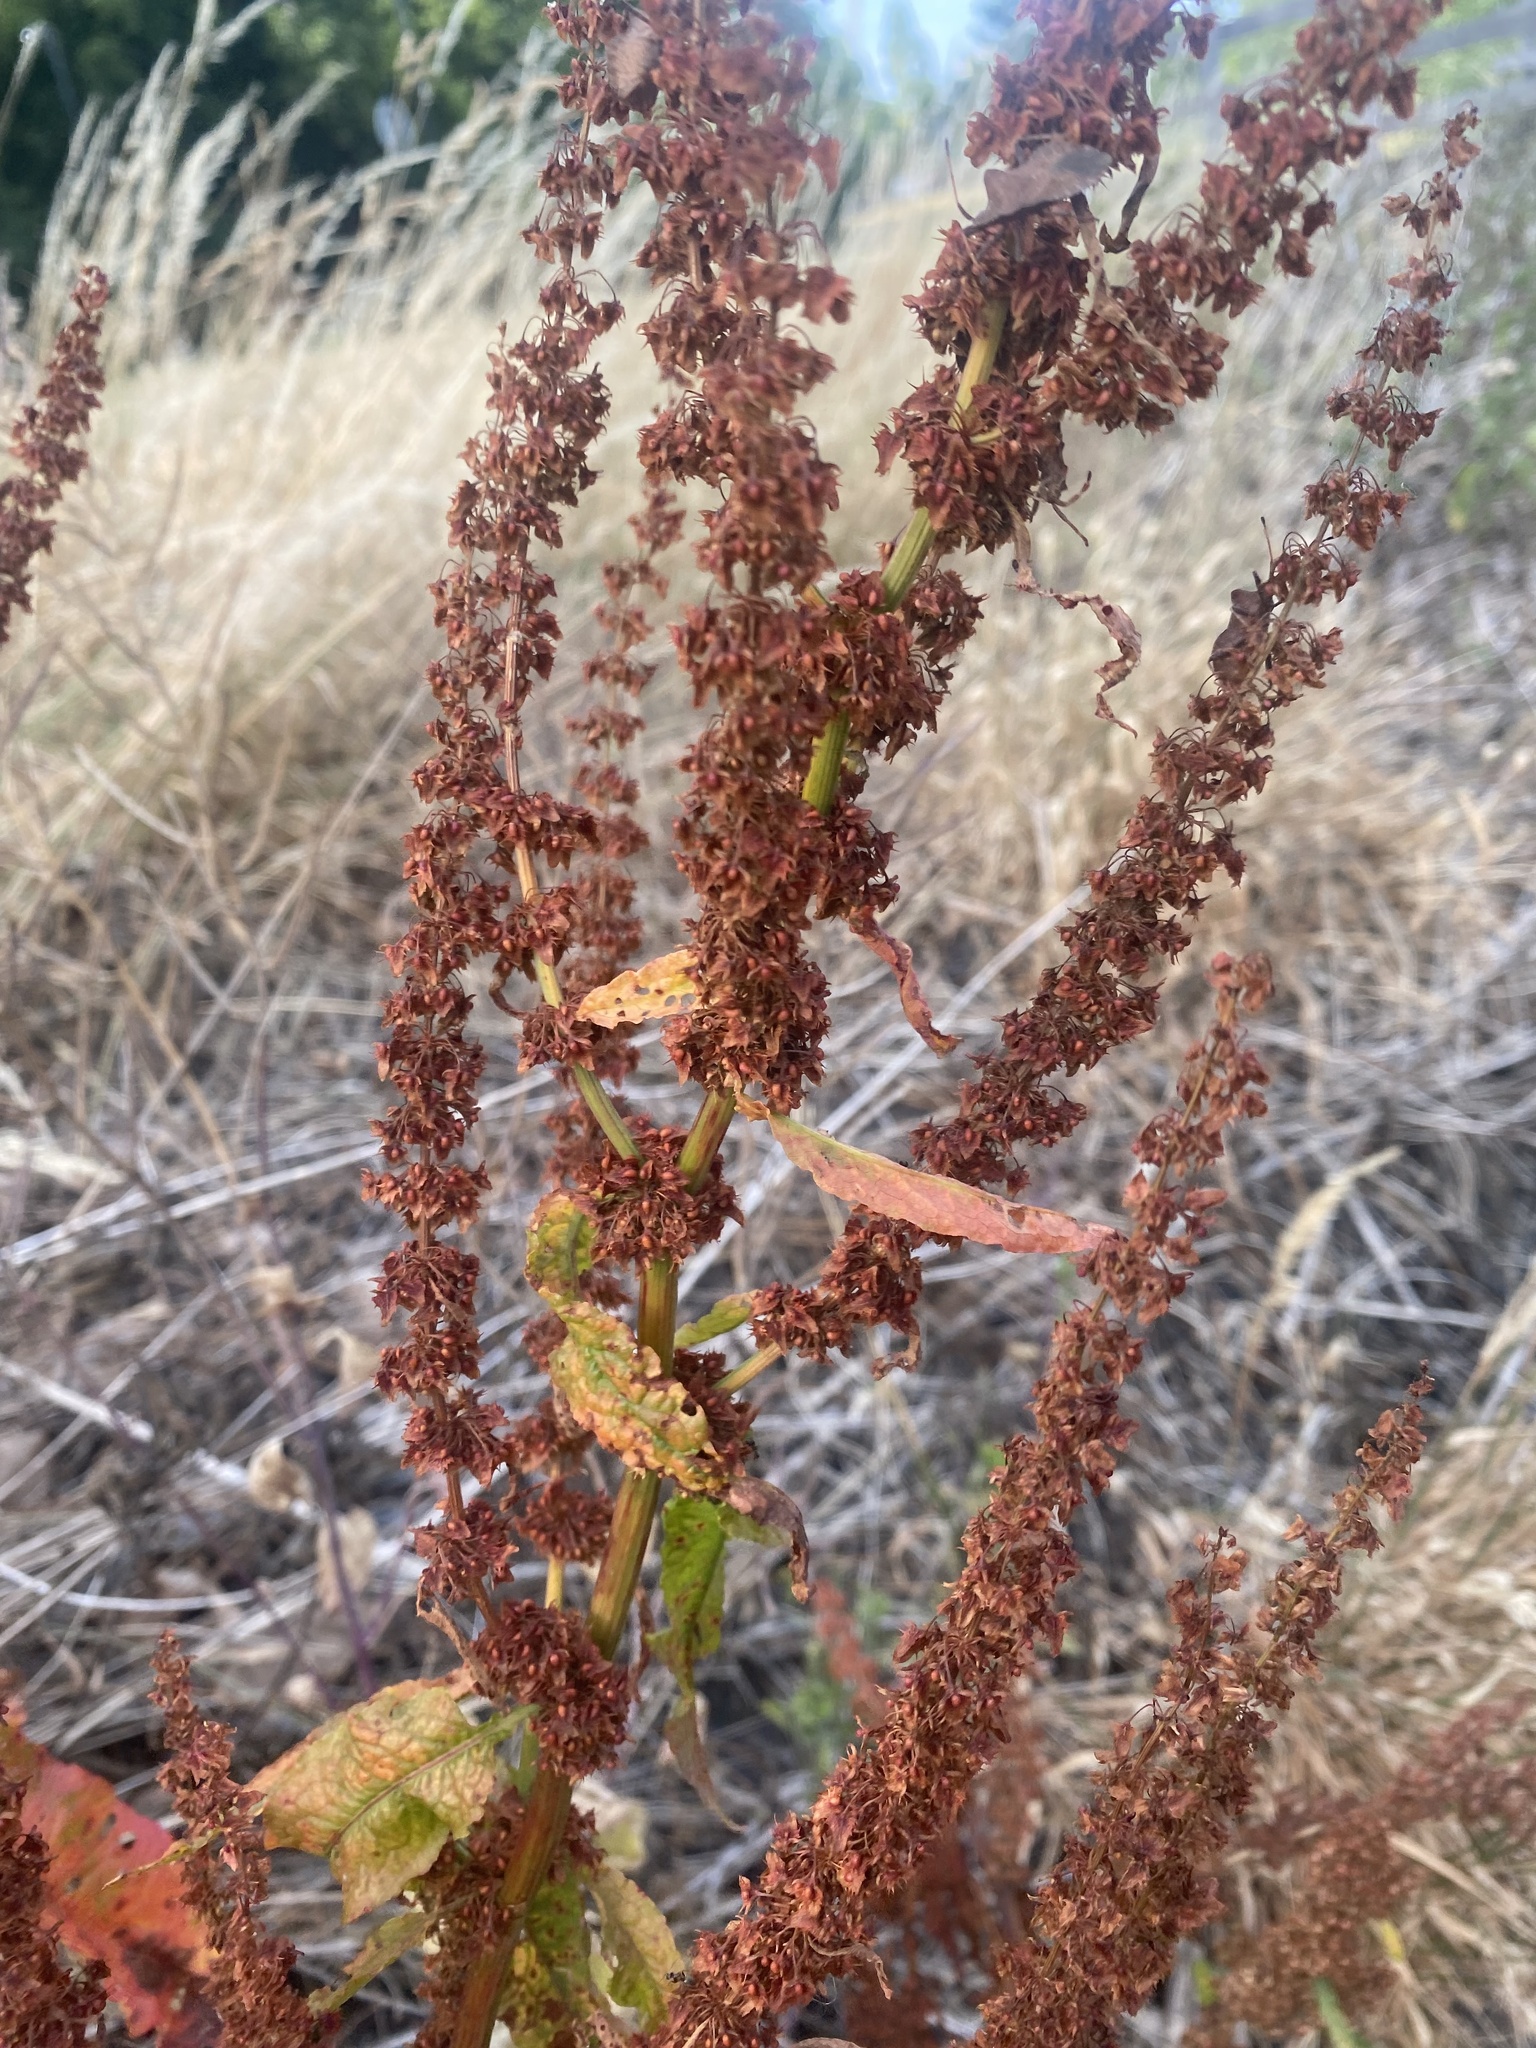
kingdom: Plantae
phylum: Tracheophyta
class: Magnoliopsida
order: Caryophyllales
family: Polygonaceae
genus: Rumex
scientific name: Rumex obtusifolius
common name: Bitter dock
